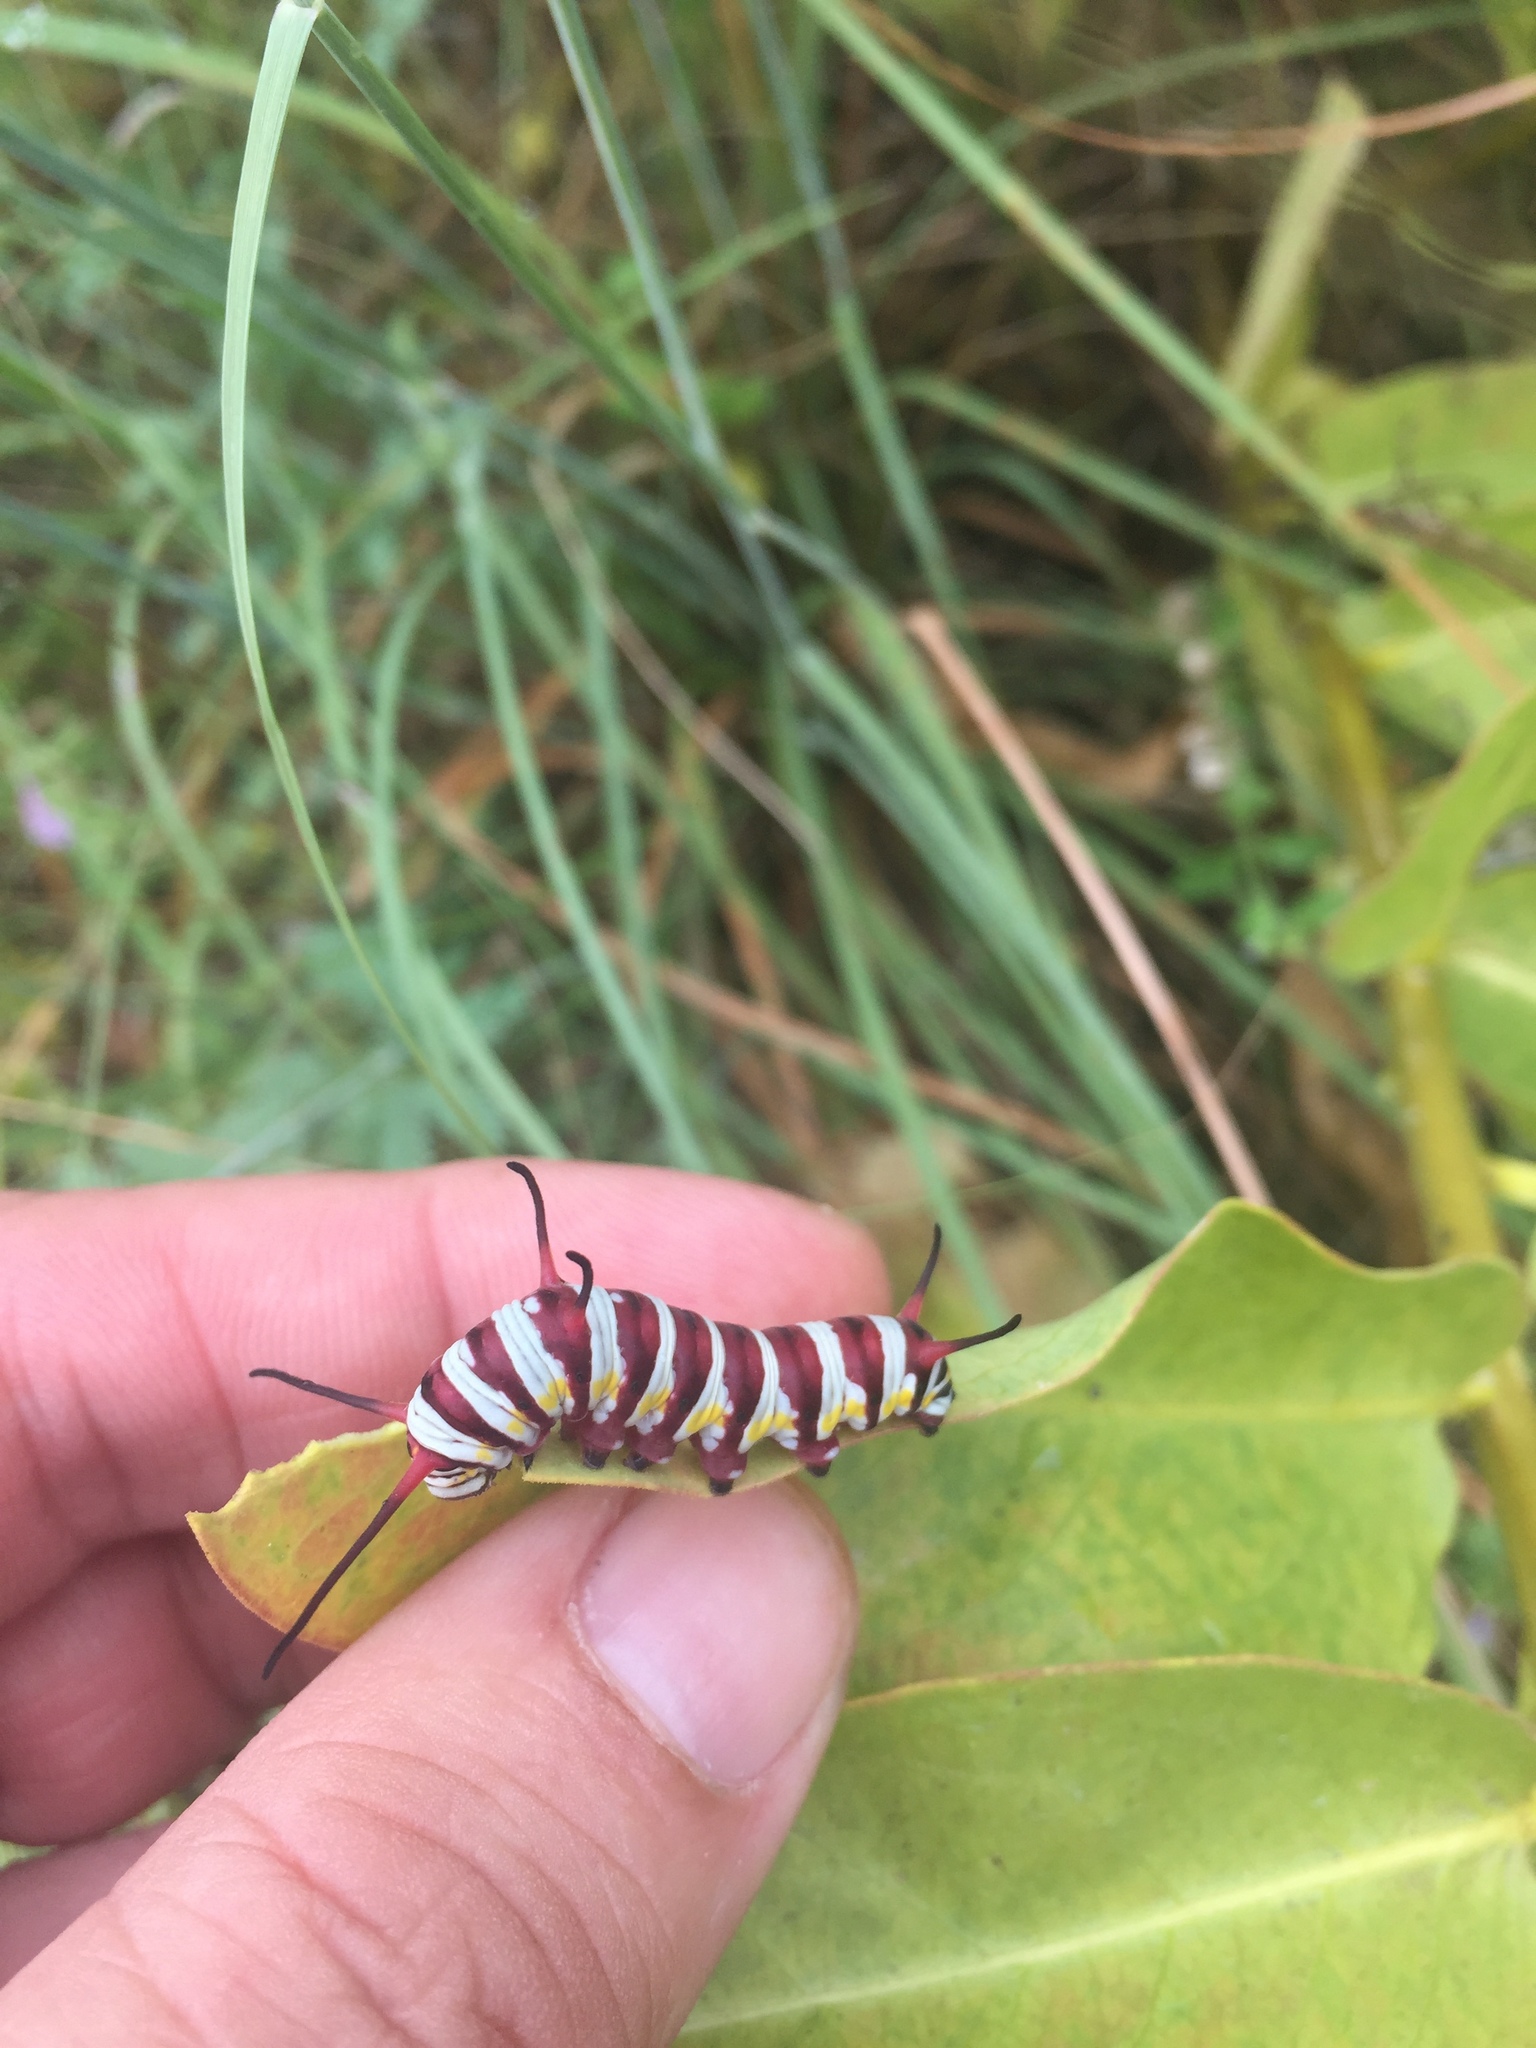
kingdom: Animalia
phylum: Arthropoda
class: Insecta
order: Lepidoptera
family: Nymphalidae
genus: Danaus
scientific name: Danaus gilippus
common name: Queen
